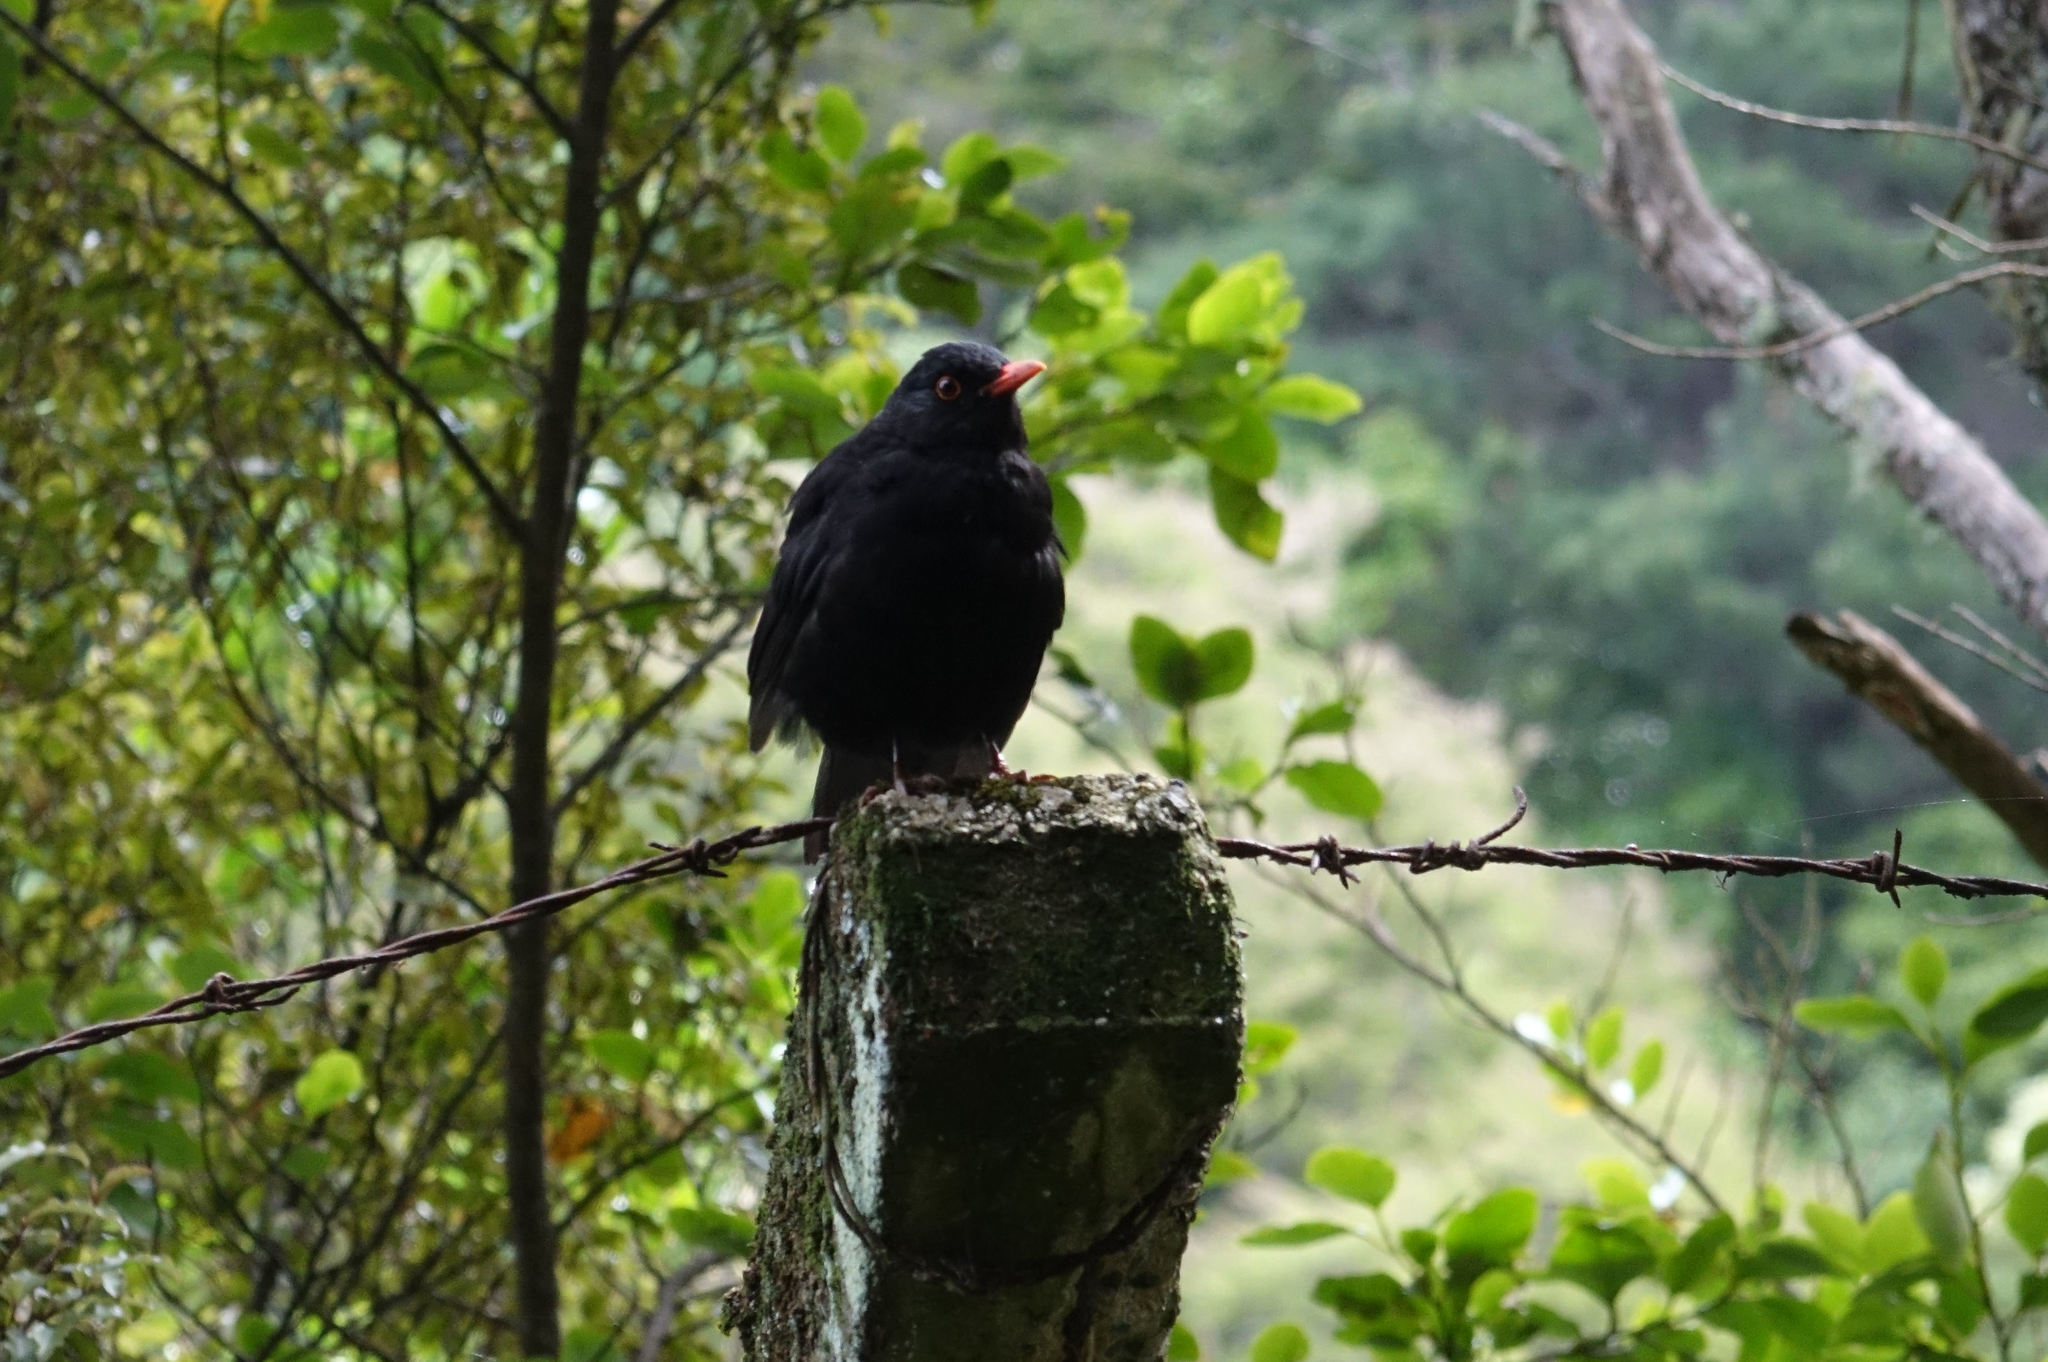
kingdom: Animalia
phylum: Chordata
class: Aves
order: Passeriformes
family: Turdidae
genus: Turdus
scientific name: Turdus merula
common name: Common blackbird
